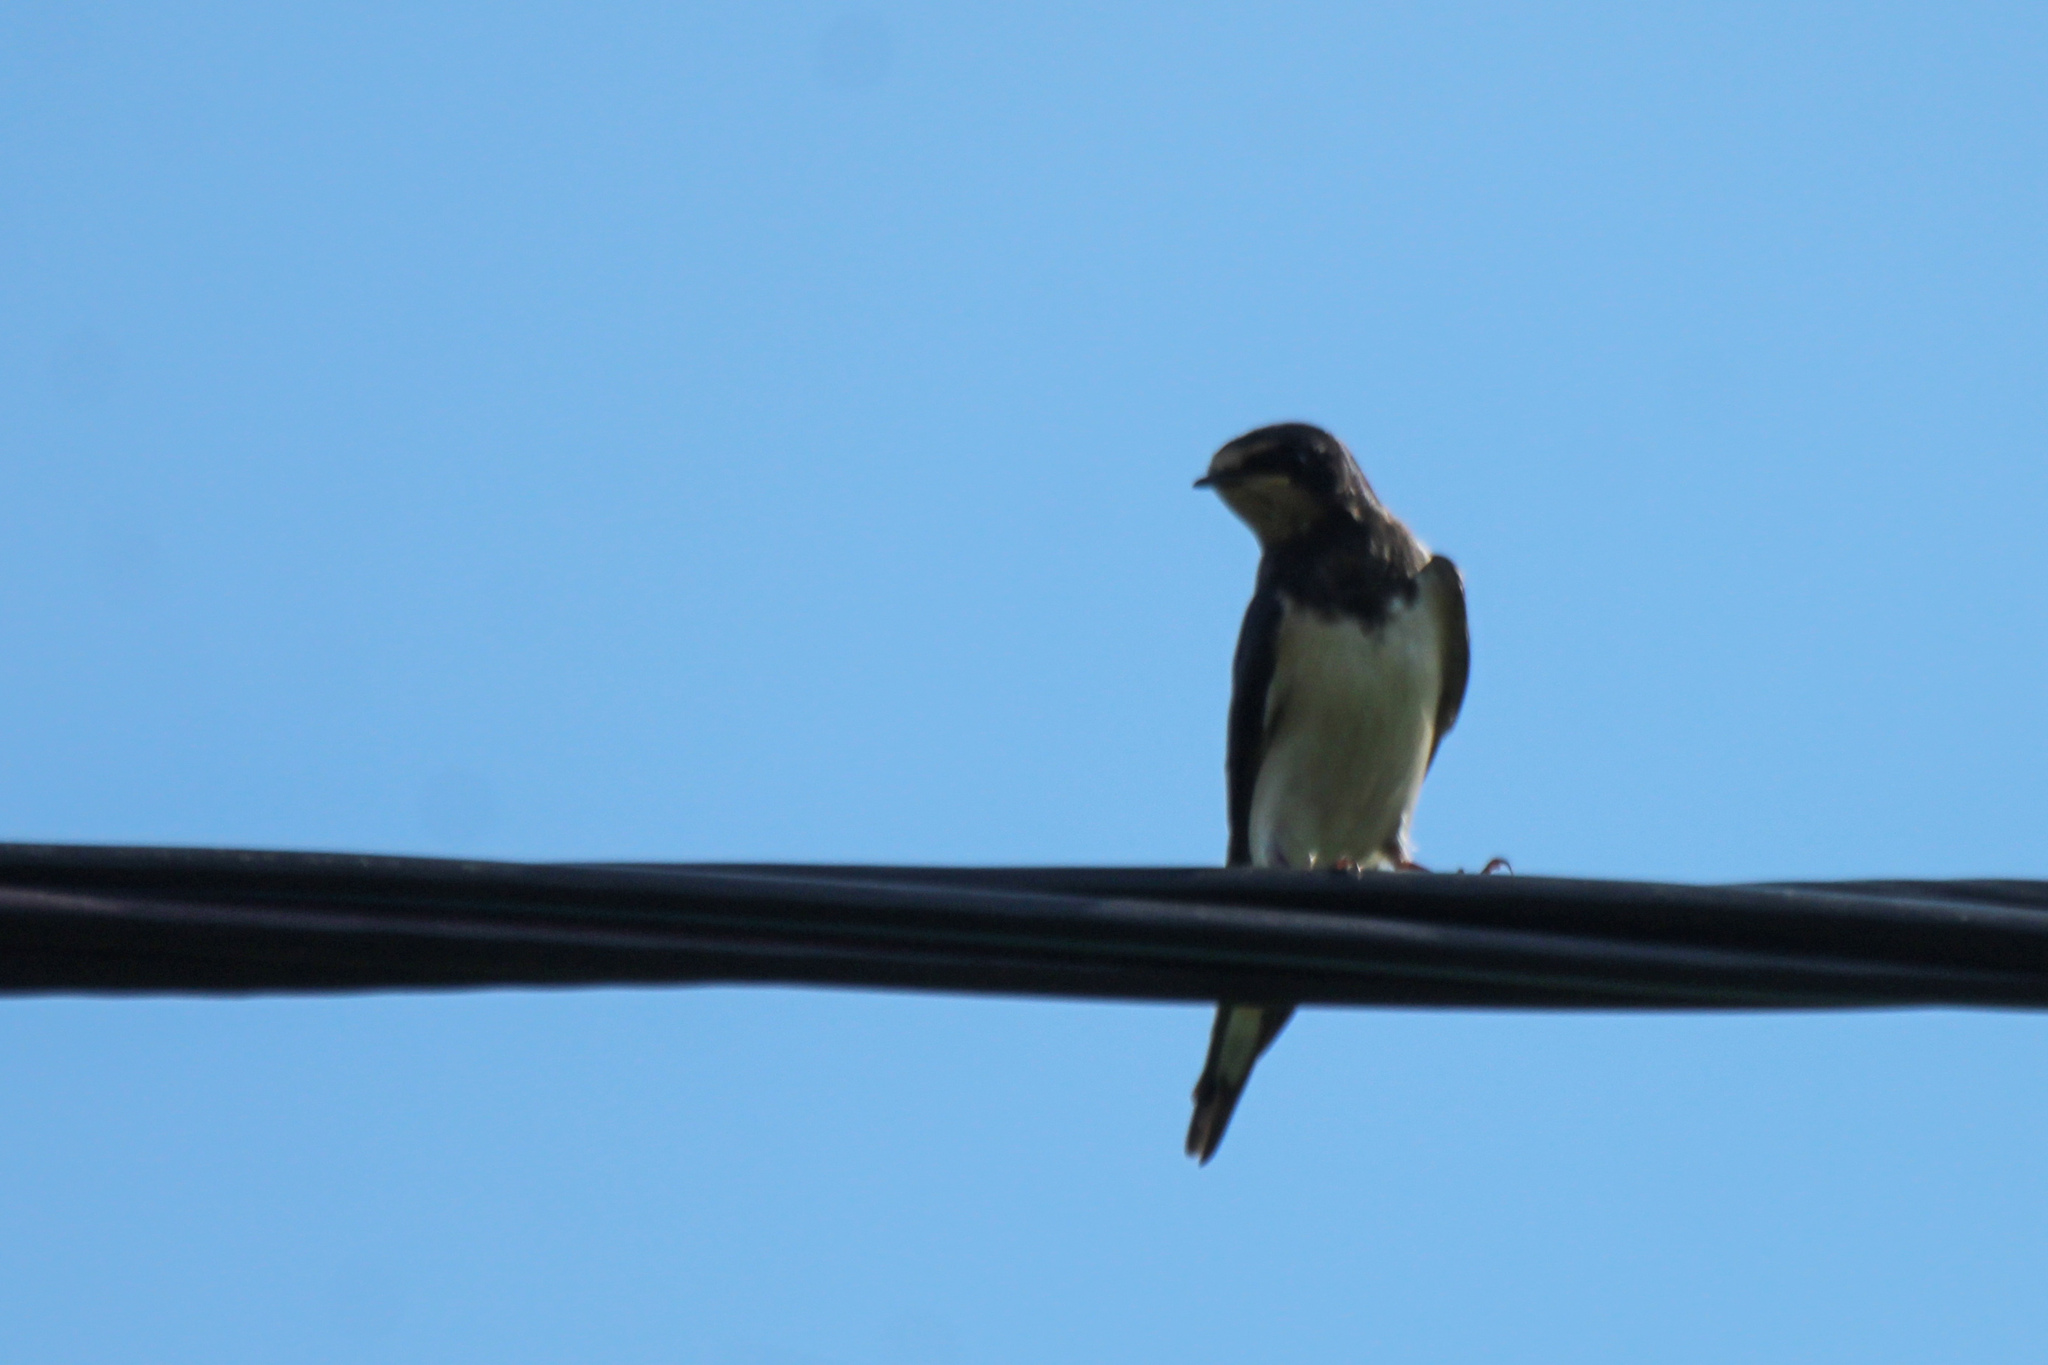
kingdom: Animalia
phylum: Chordata
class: Aves
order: Passeriformes
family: Hirundinidae
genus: Hirundo
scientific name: Hirundo rustica
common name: Barn swallow
